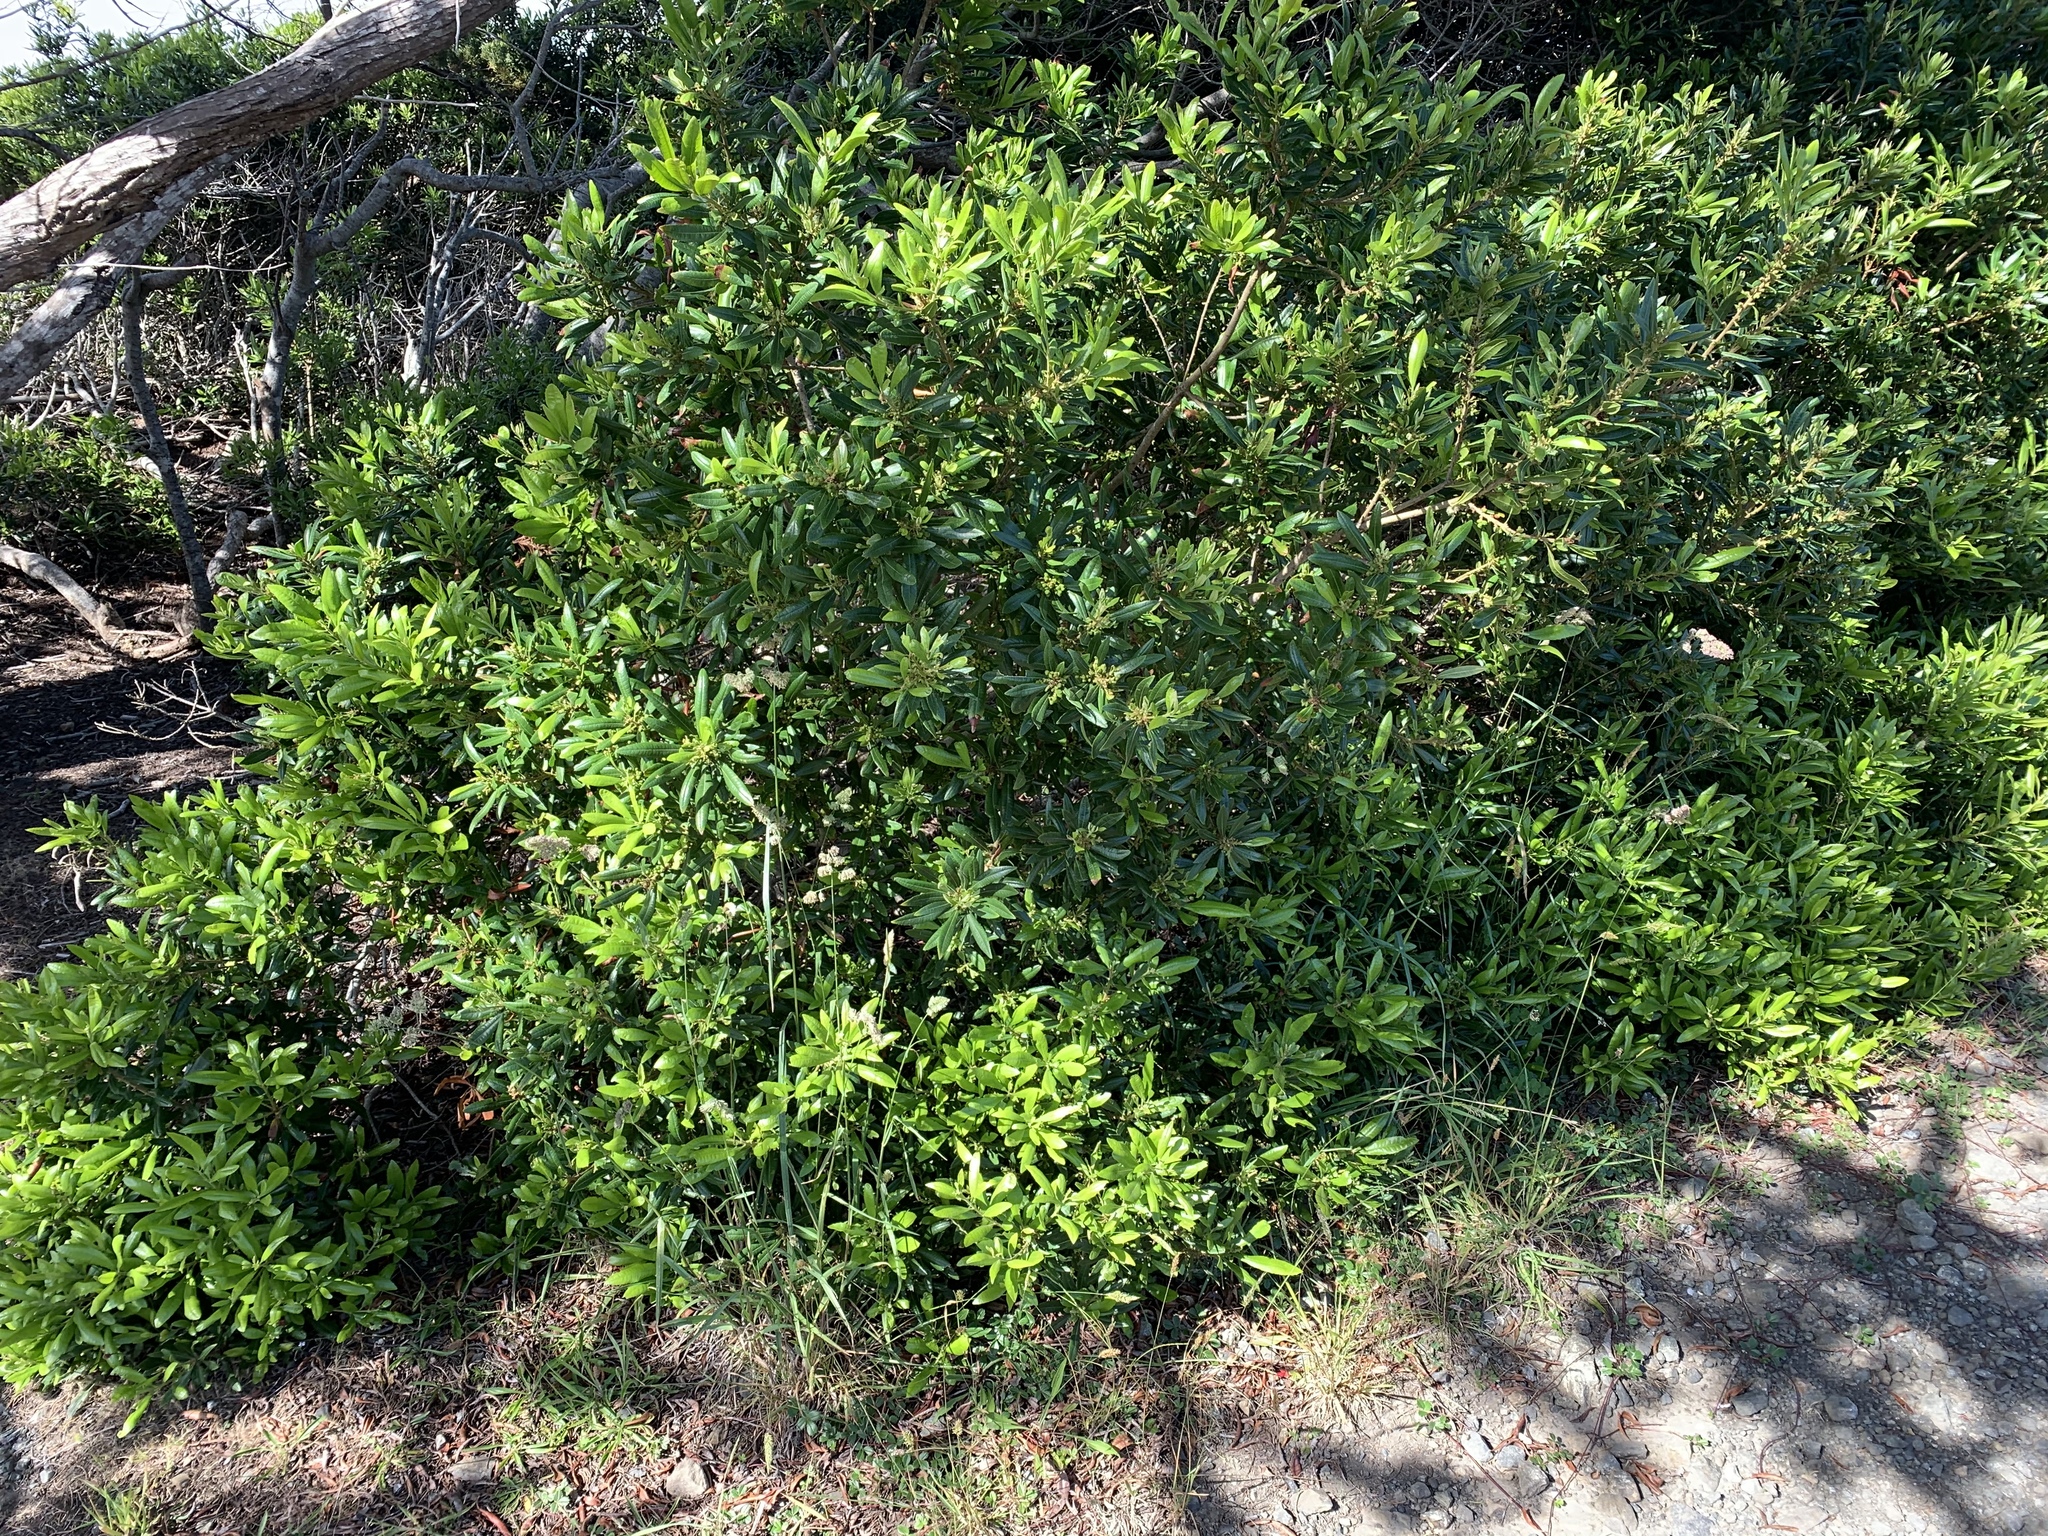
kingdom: Plantae
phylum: Tracheophyta
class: Magnoliopsida
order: Fagales
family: Myricaceae
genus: Morella
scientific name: Morella californica
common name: California wax-myrtle
